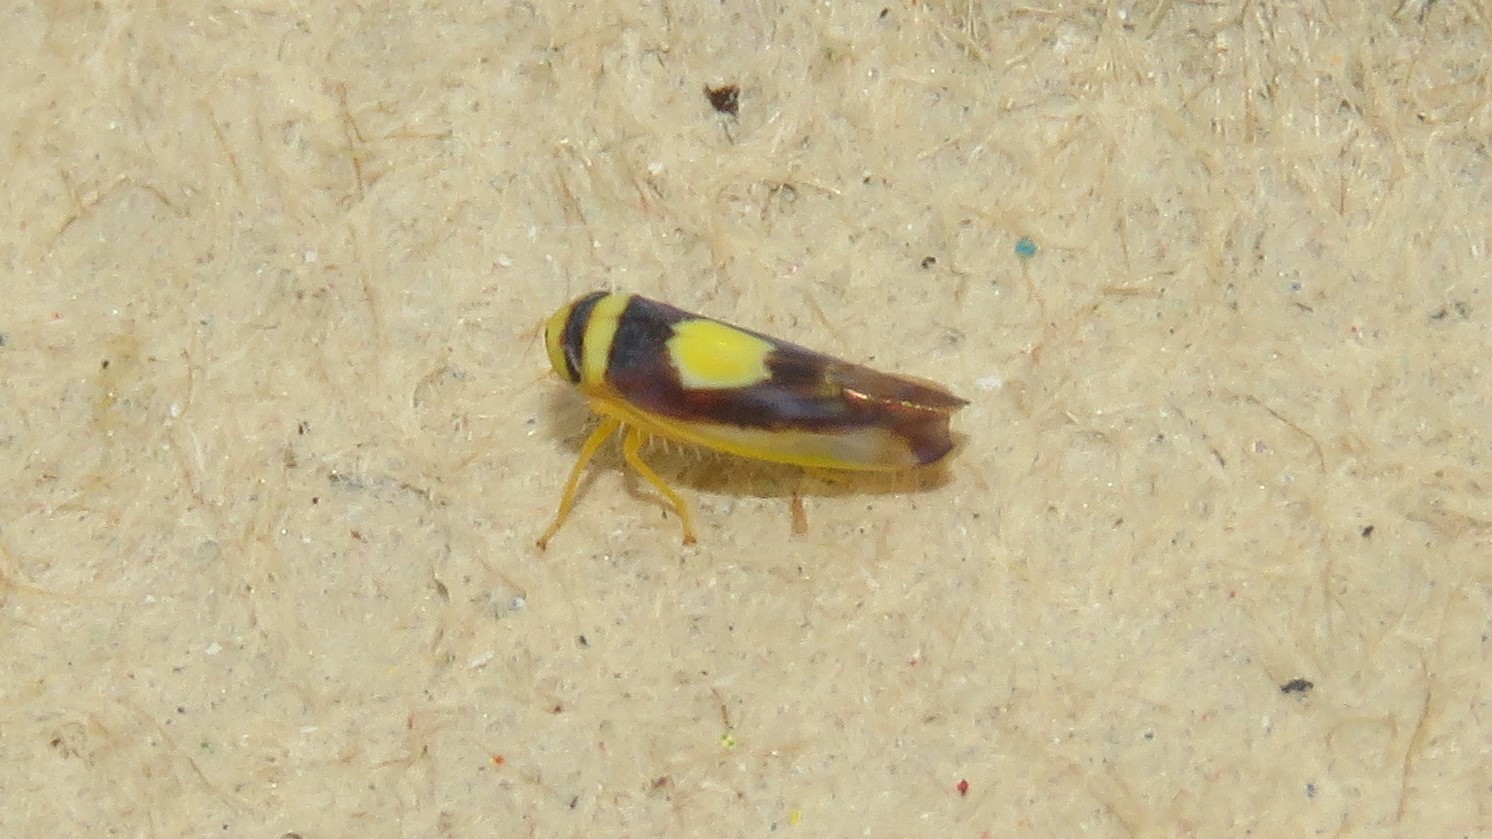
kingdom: Animalia
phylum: Arthropoda
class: Insecta
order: Hemiptera
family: Cicadellidae
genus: Colladonus
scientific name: Colladonus clitellarius
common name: The saddleback leafhopper
